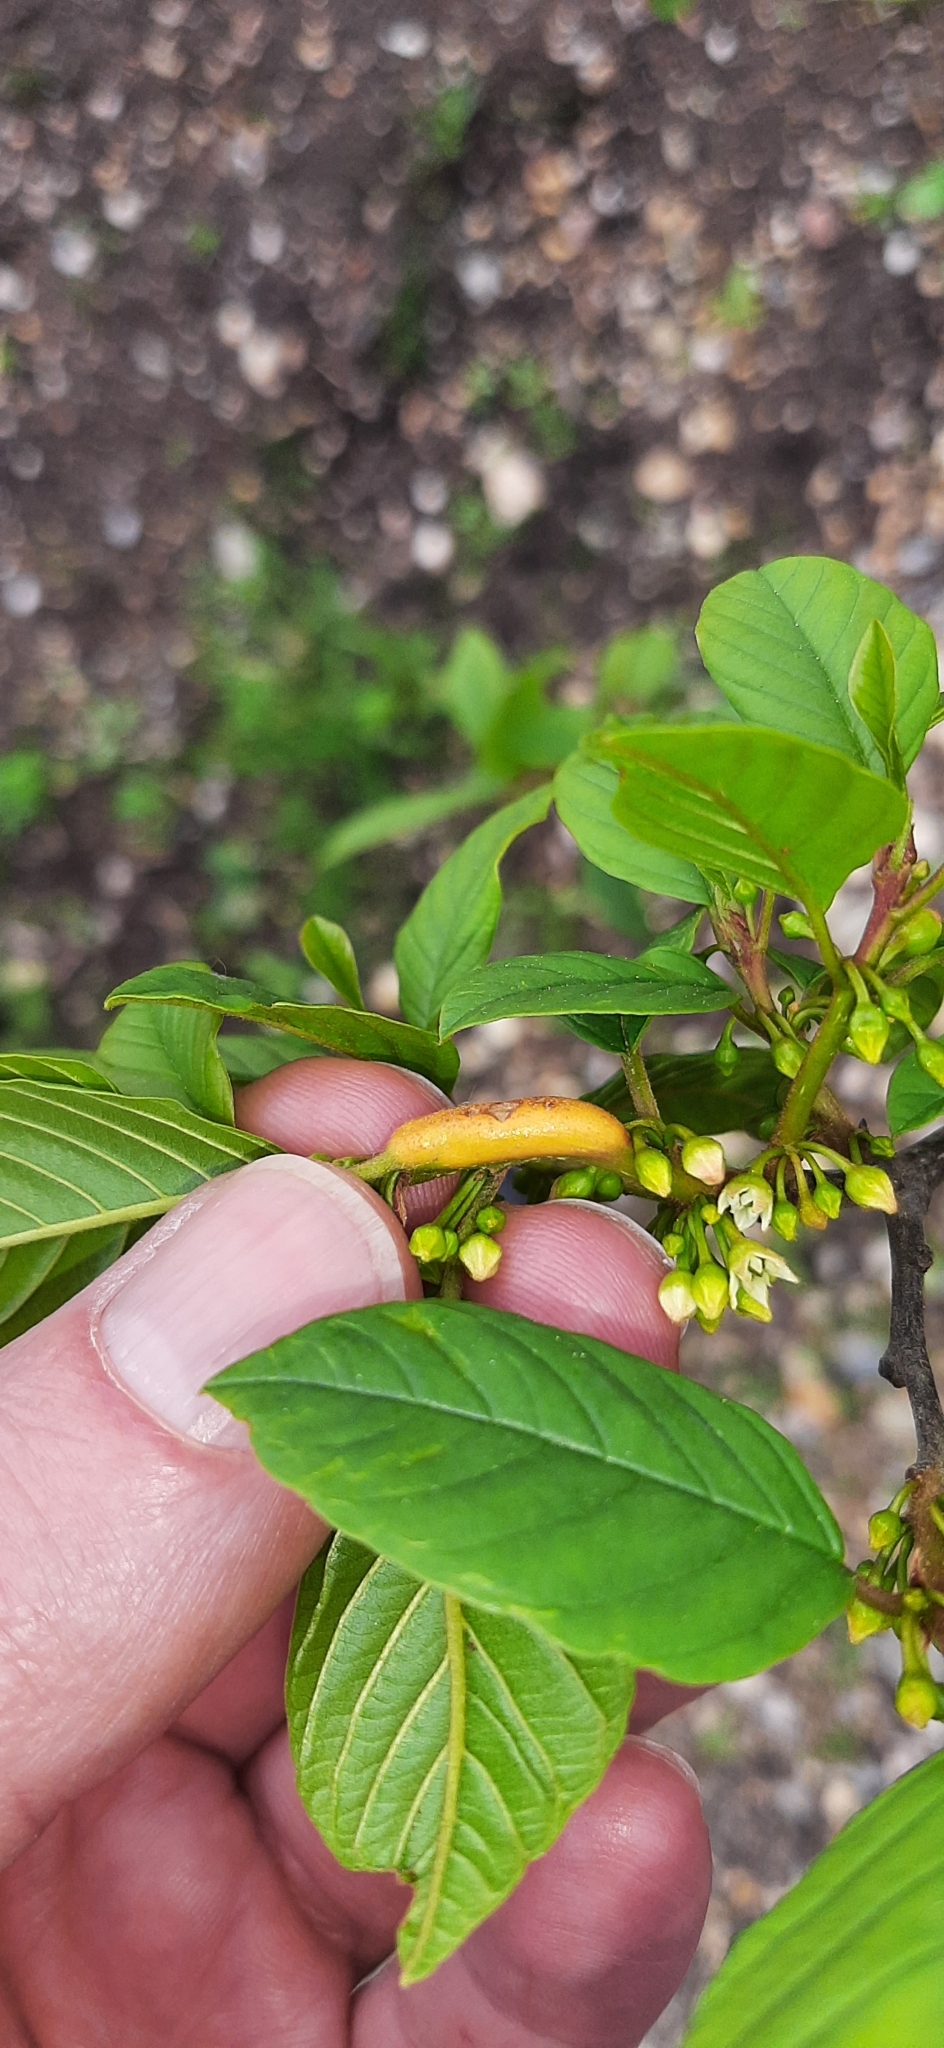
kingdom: Fungi
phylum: Basidiomycota
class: Pucciniomycetes
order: Pucciniales
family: Pucciniaceae
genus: Puccinia
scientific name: Puccinia coronata
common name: Crown rust
